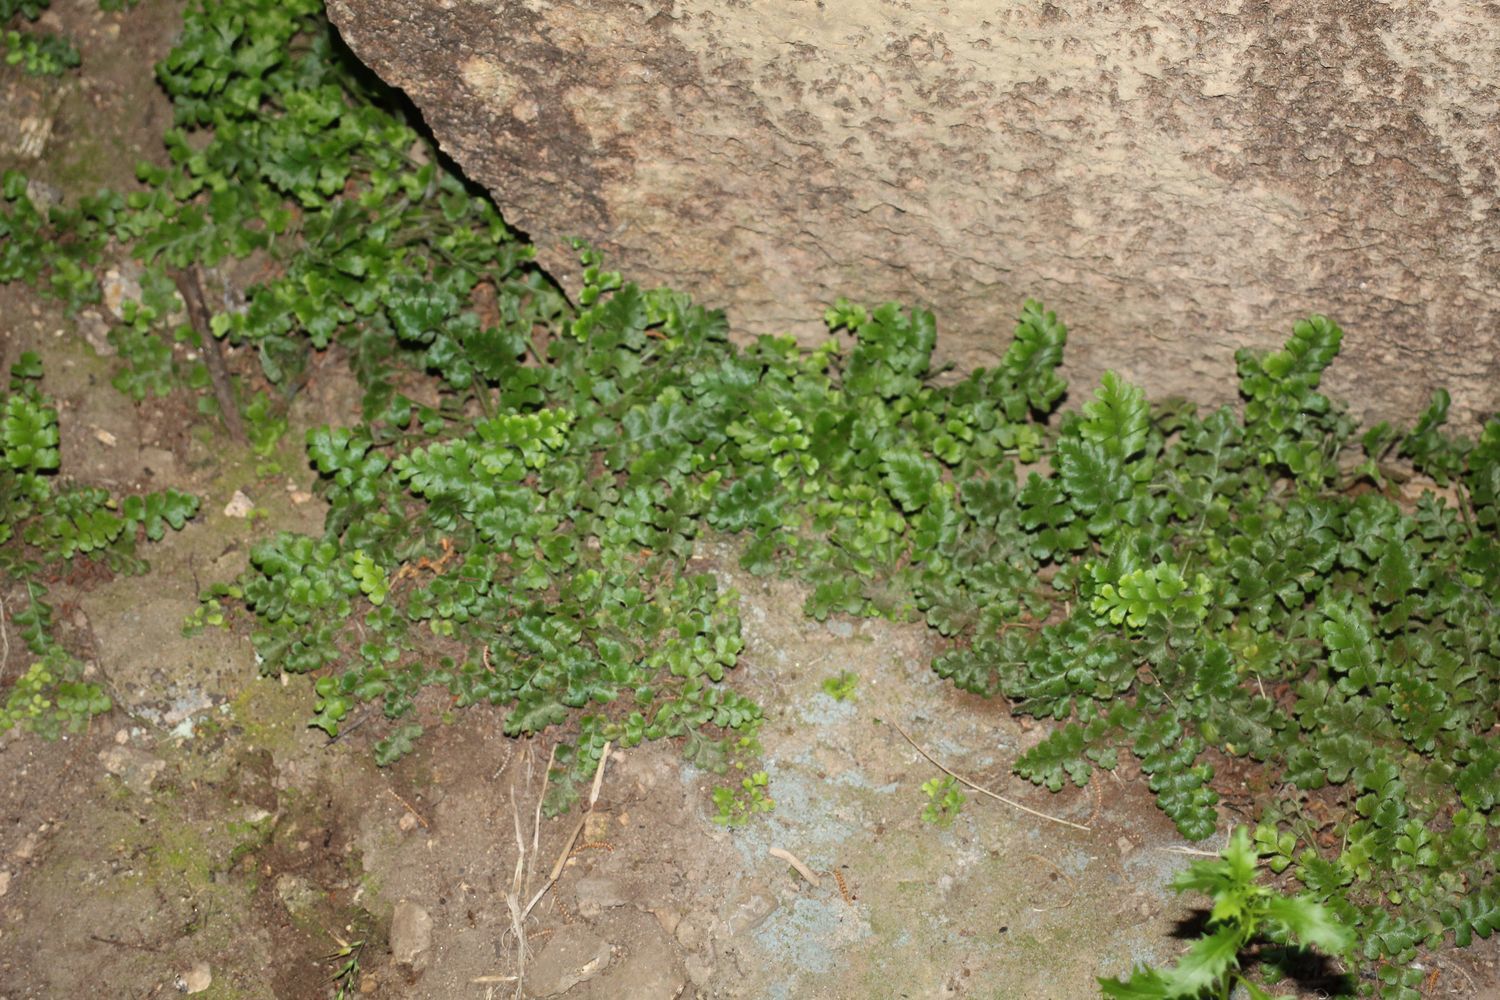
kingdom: Plantae
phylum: Tracheophyta
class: Polypodiopsida
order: Polypodiales
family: Aspleniaceae
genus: Asplenium
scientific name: Asplenium subglandulosum
